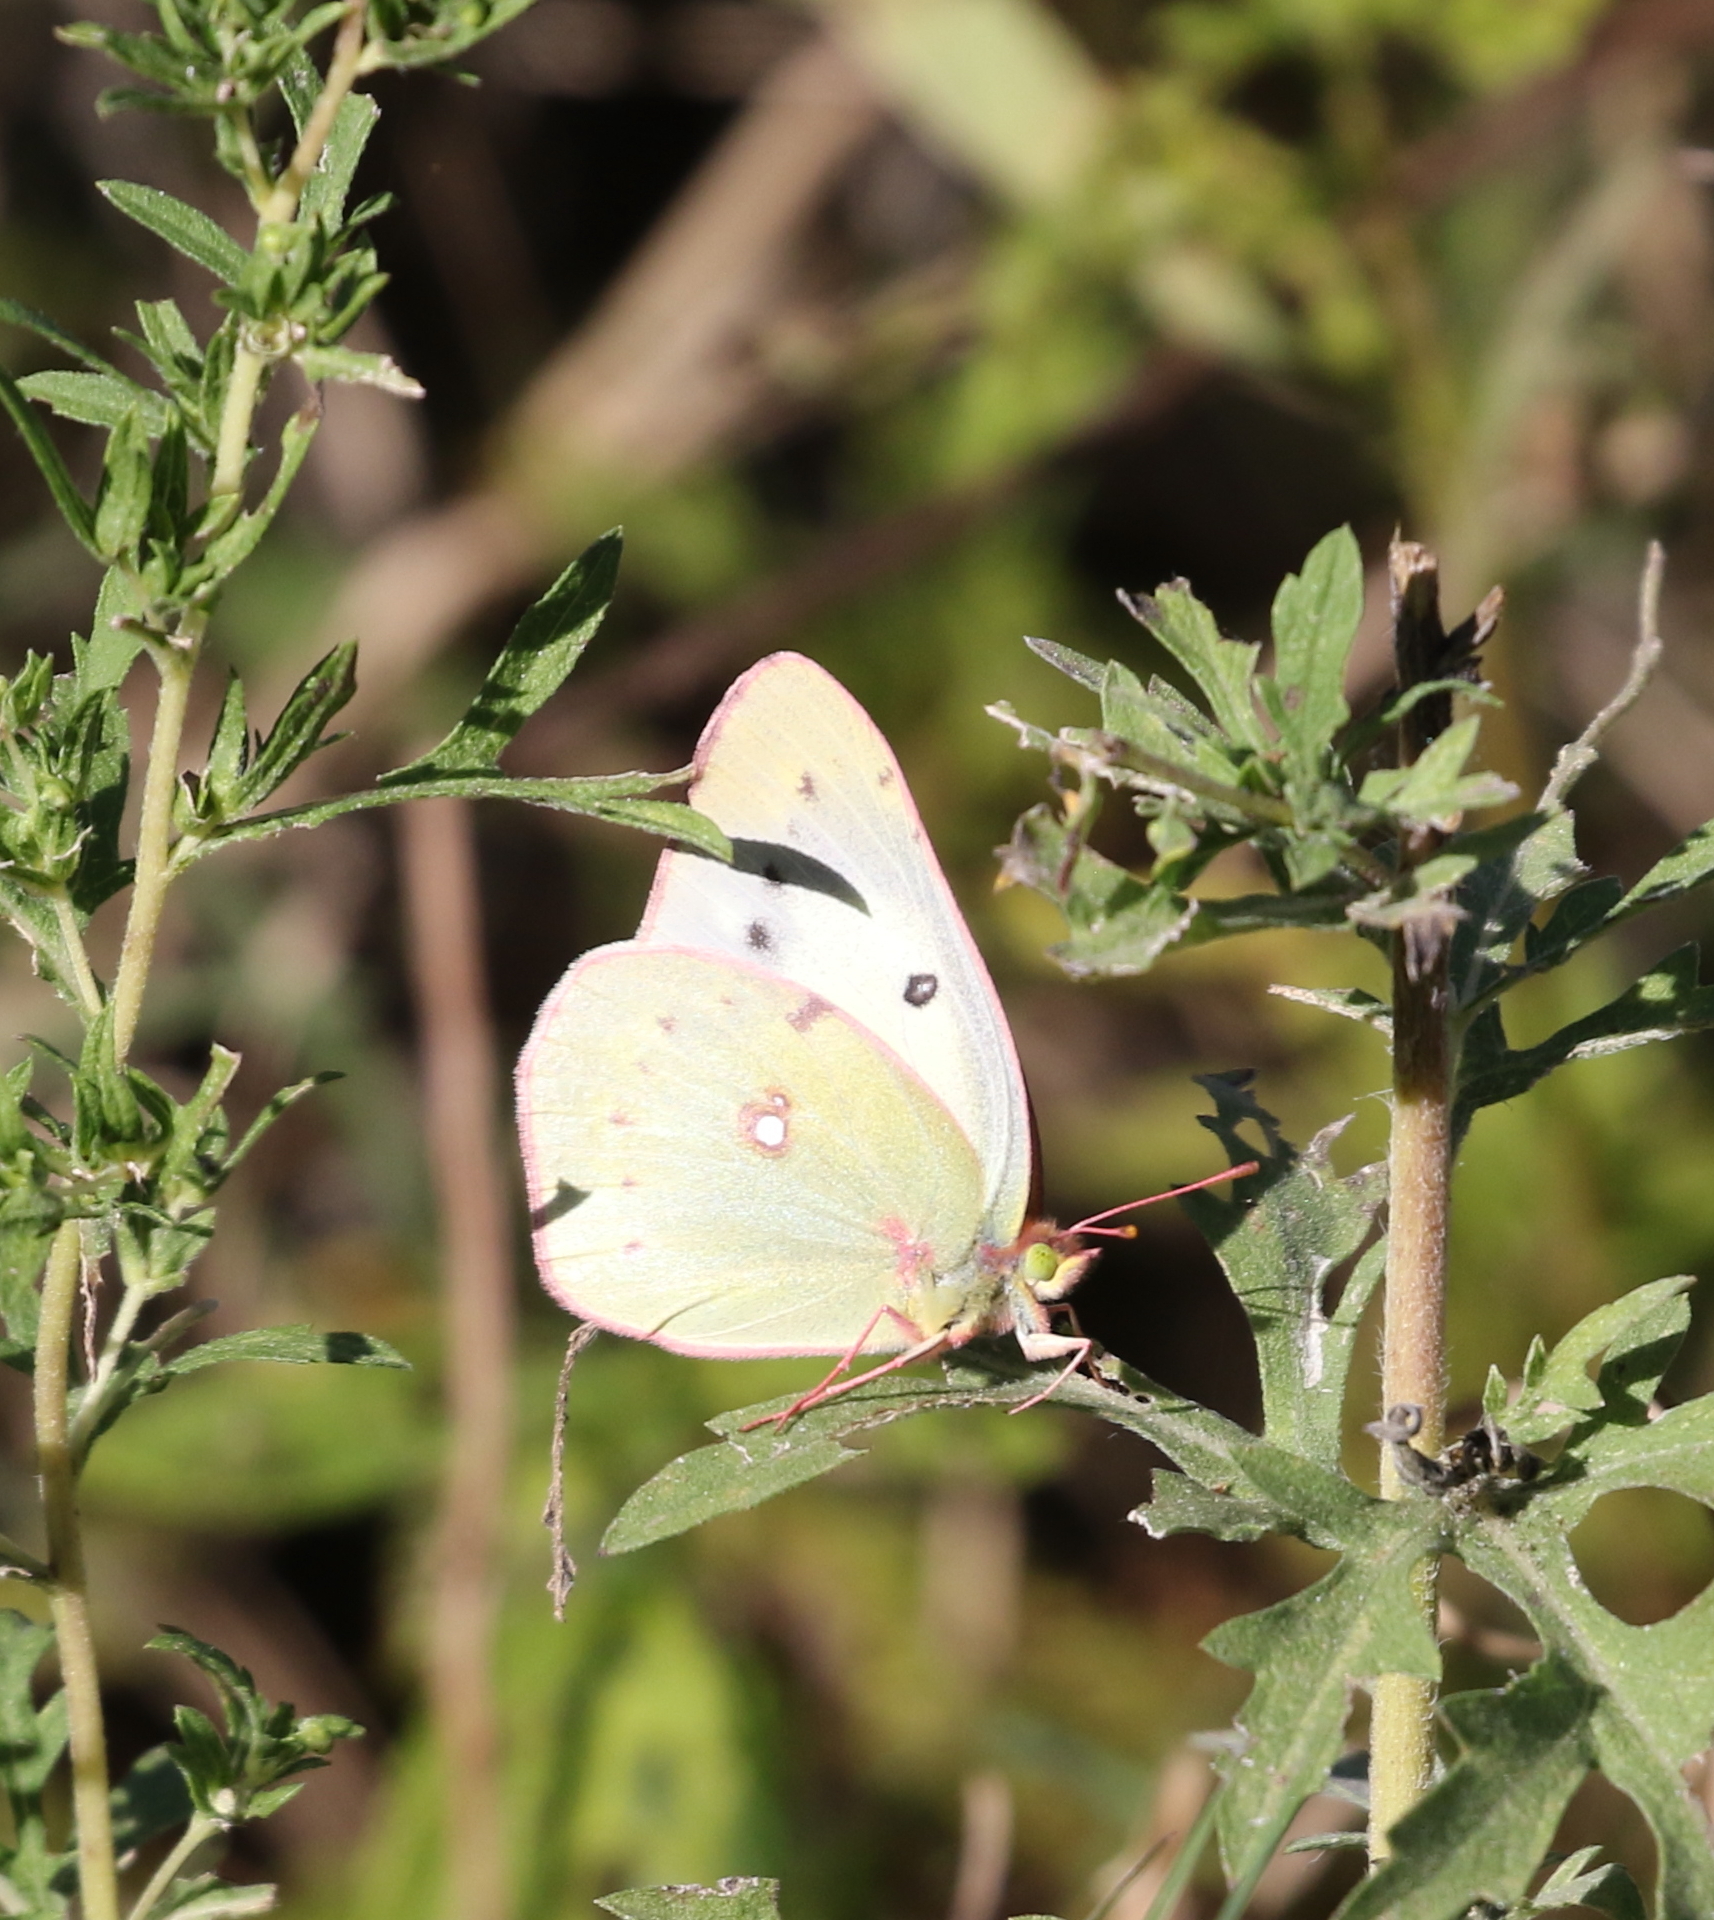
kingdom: Animalia
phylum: Arthropoda
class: Insecta
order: Lepidoptera
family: Pieridae
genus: Phoebis
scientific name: Phoebis sennae
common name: Cloudless sulphur
